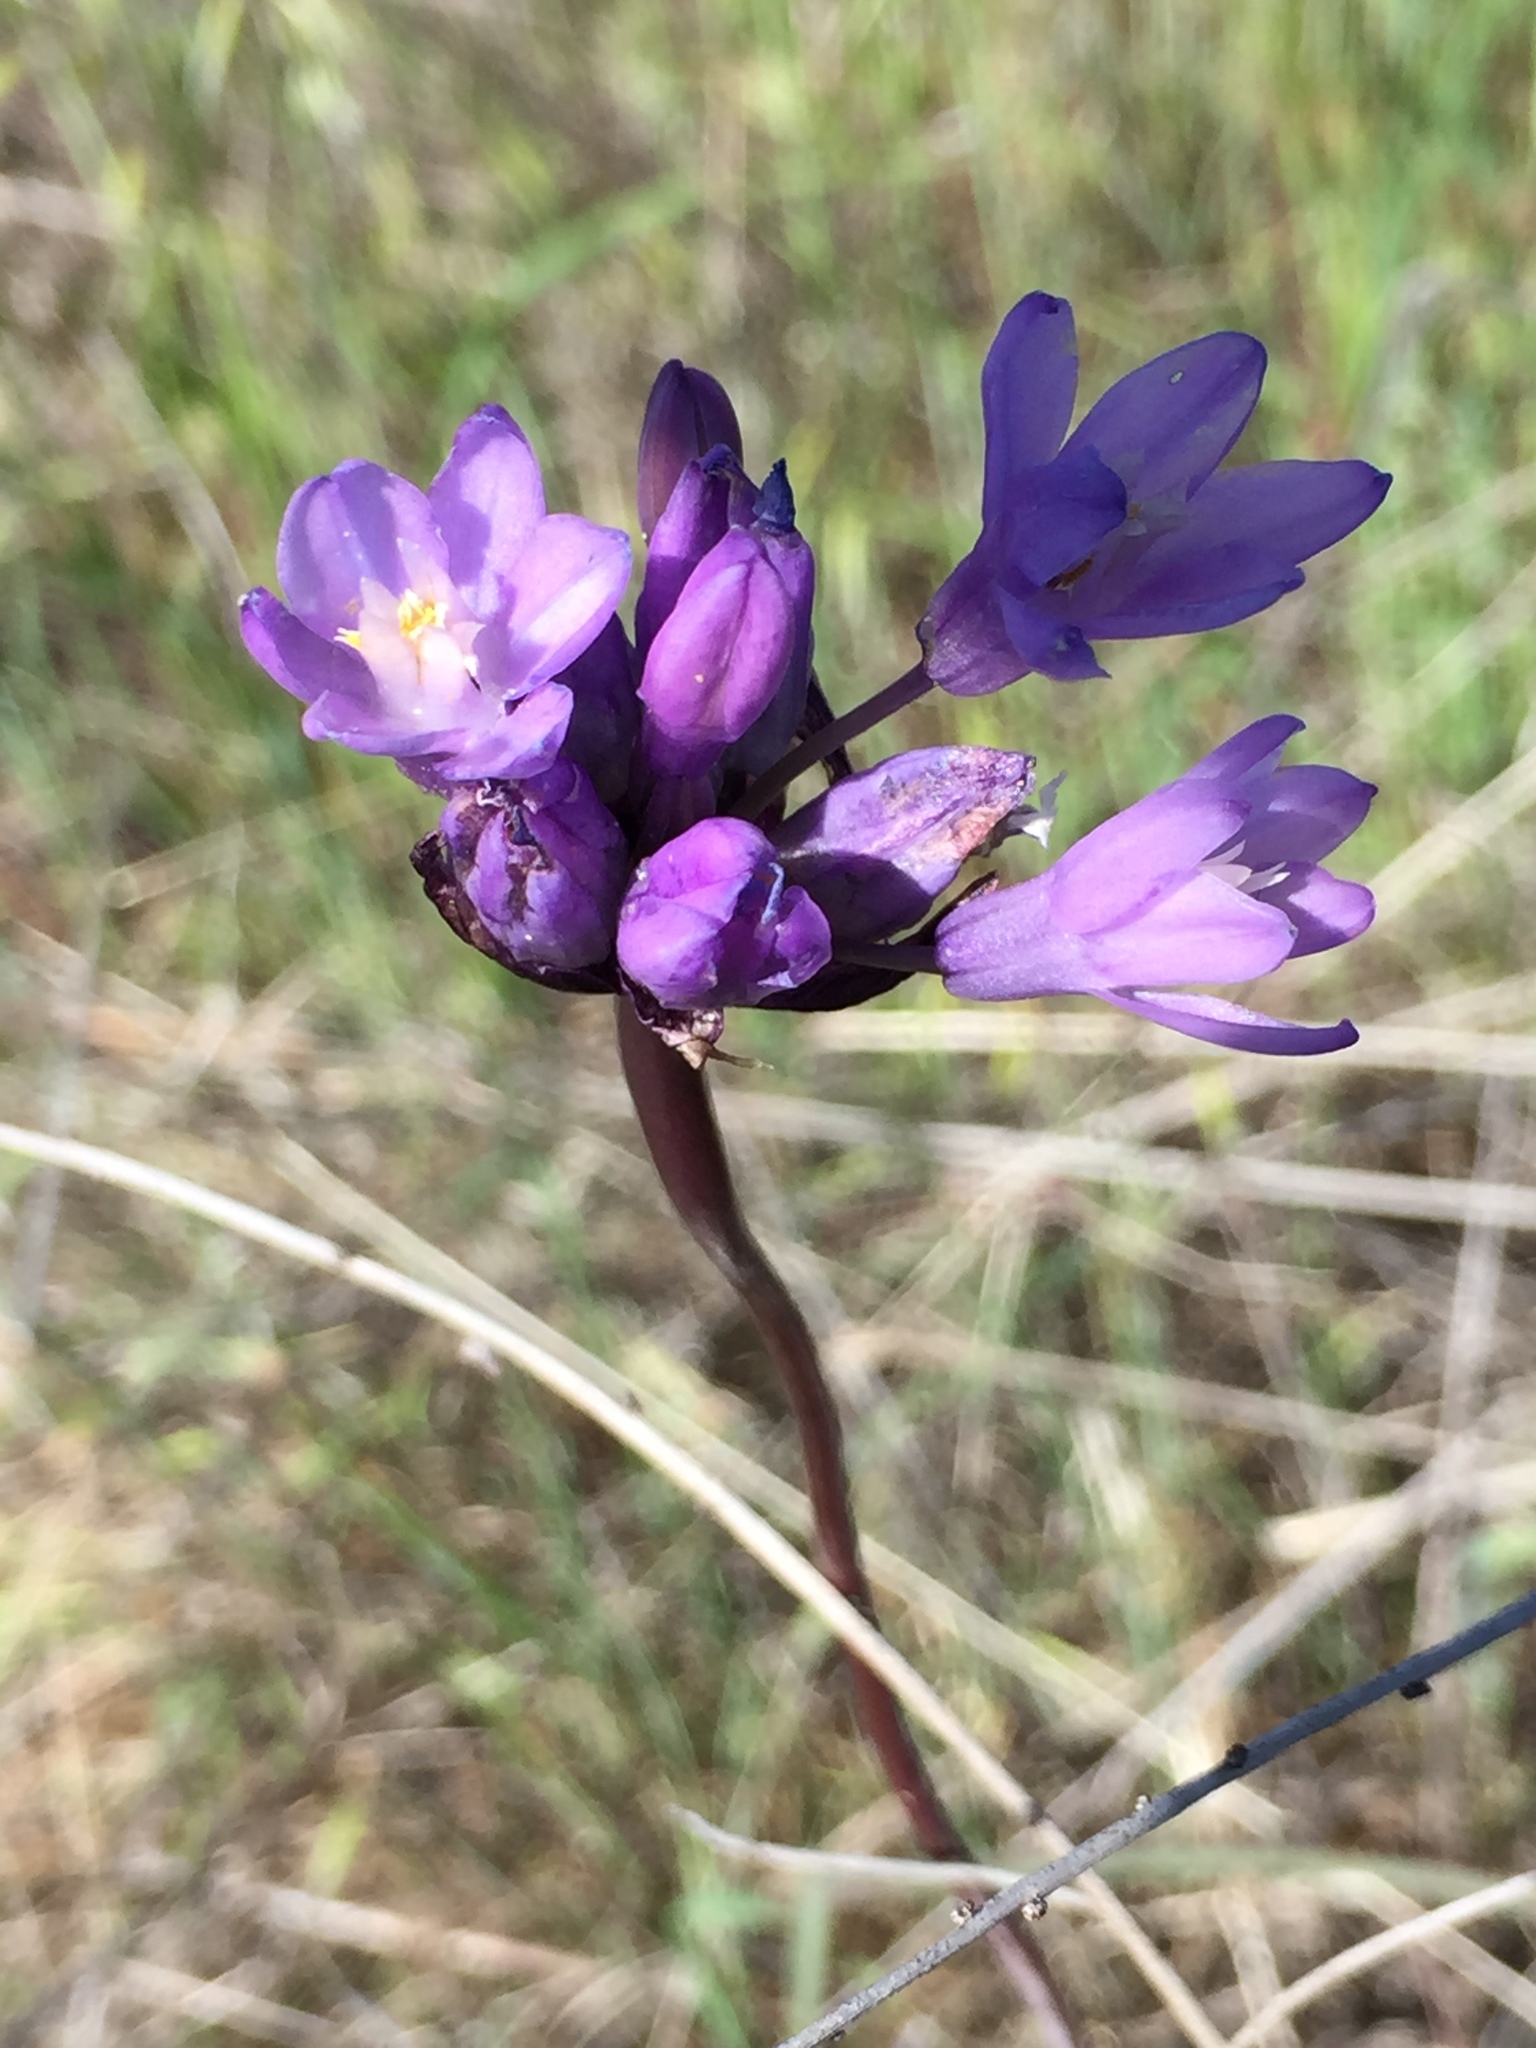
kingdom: Plantae
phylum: Tracheophyta
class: Liliopsida
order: Asparagales
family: Asparagaceae
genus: Dipterostemon
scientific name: Dipterostemon capitatus
